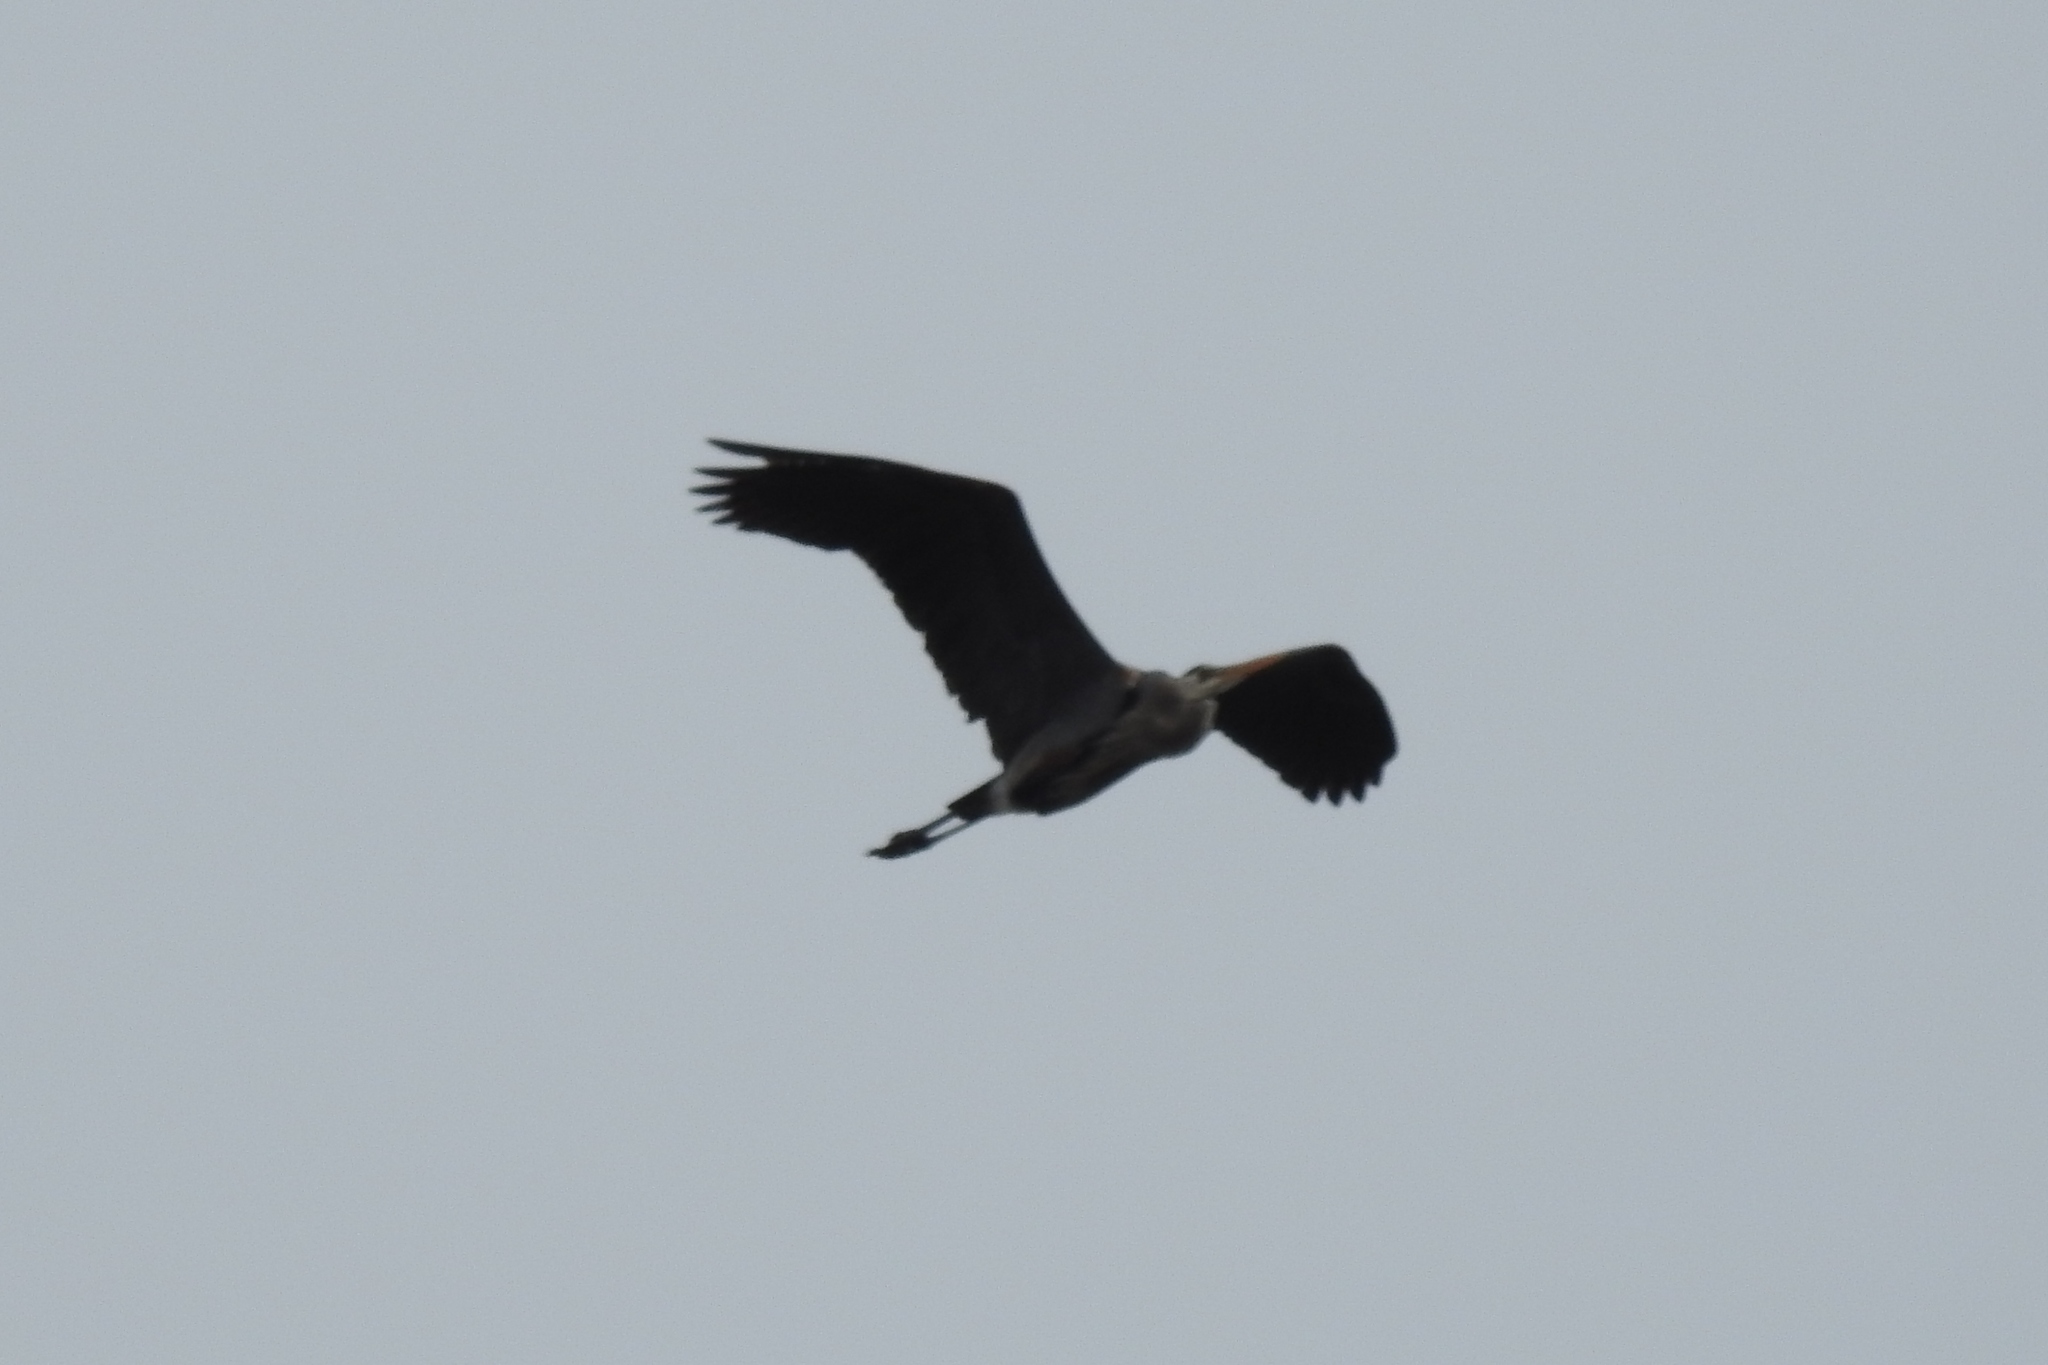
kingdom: Animalia
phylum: Chordata
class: Aves
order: Pelecaniformes
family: Ardeidae
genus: Ardea
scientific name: Ardea herodias
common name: Great blue heron
